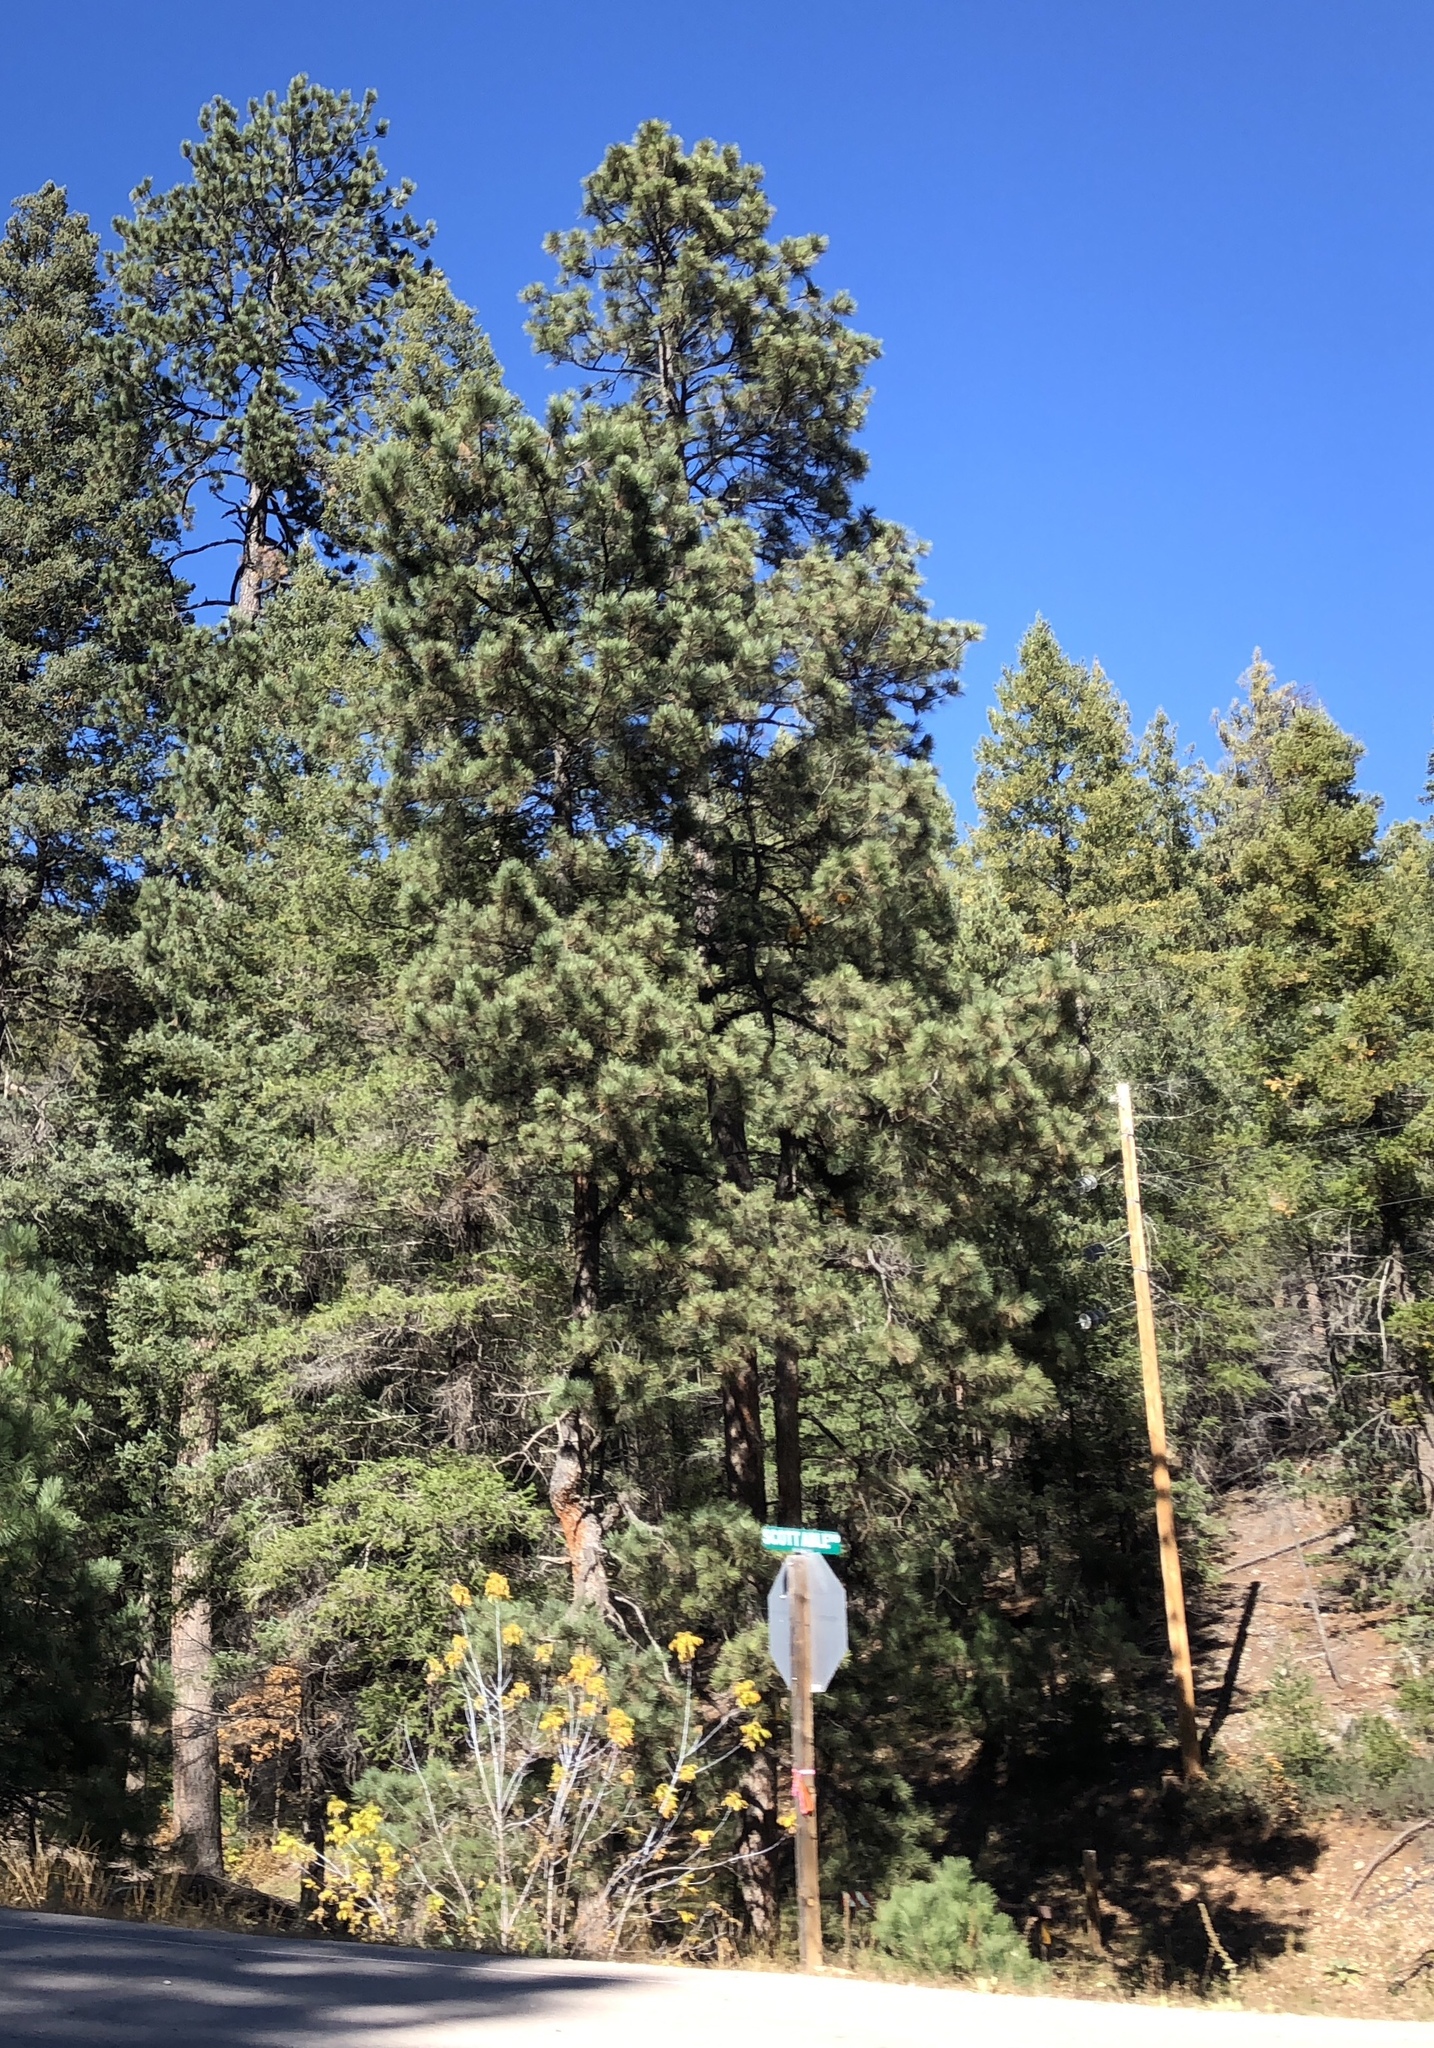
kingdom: Plantae
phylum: Tracheophyta
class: Pinopsida
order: Pinales
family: Pinaceae
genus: Pinus
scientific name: Pinus ponderosa
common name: Western yellow-pine
